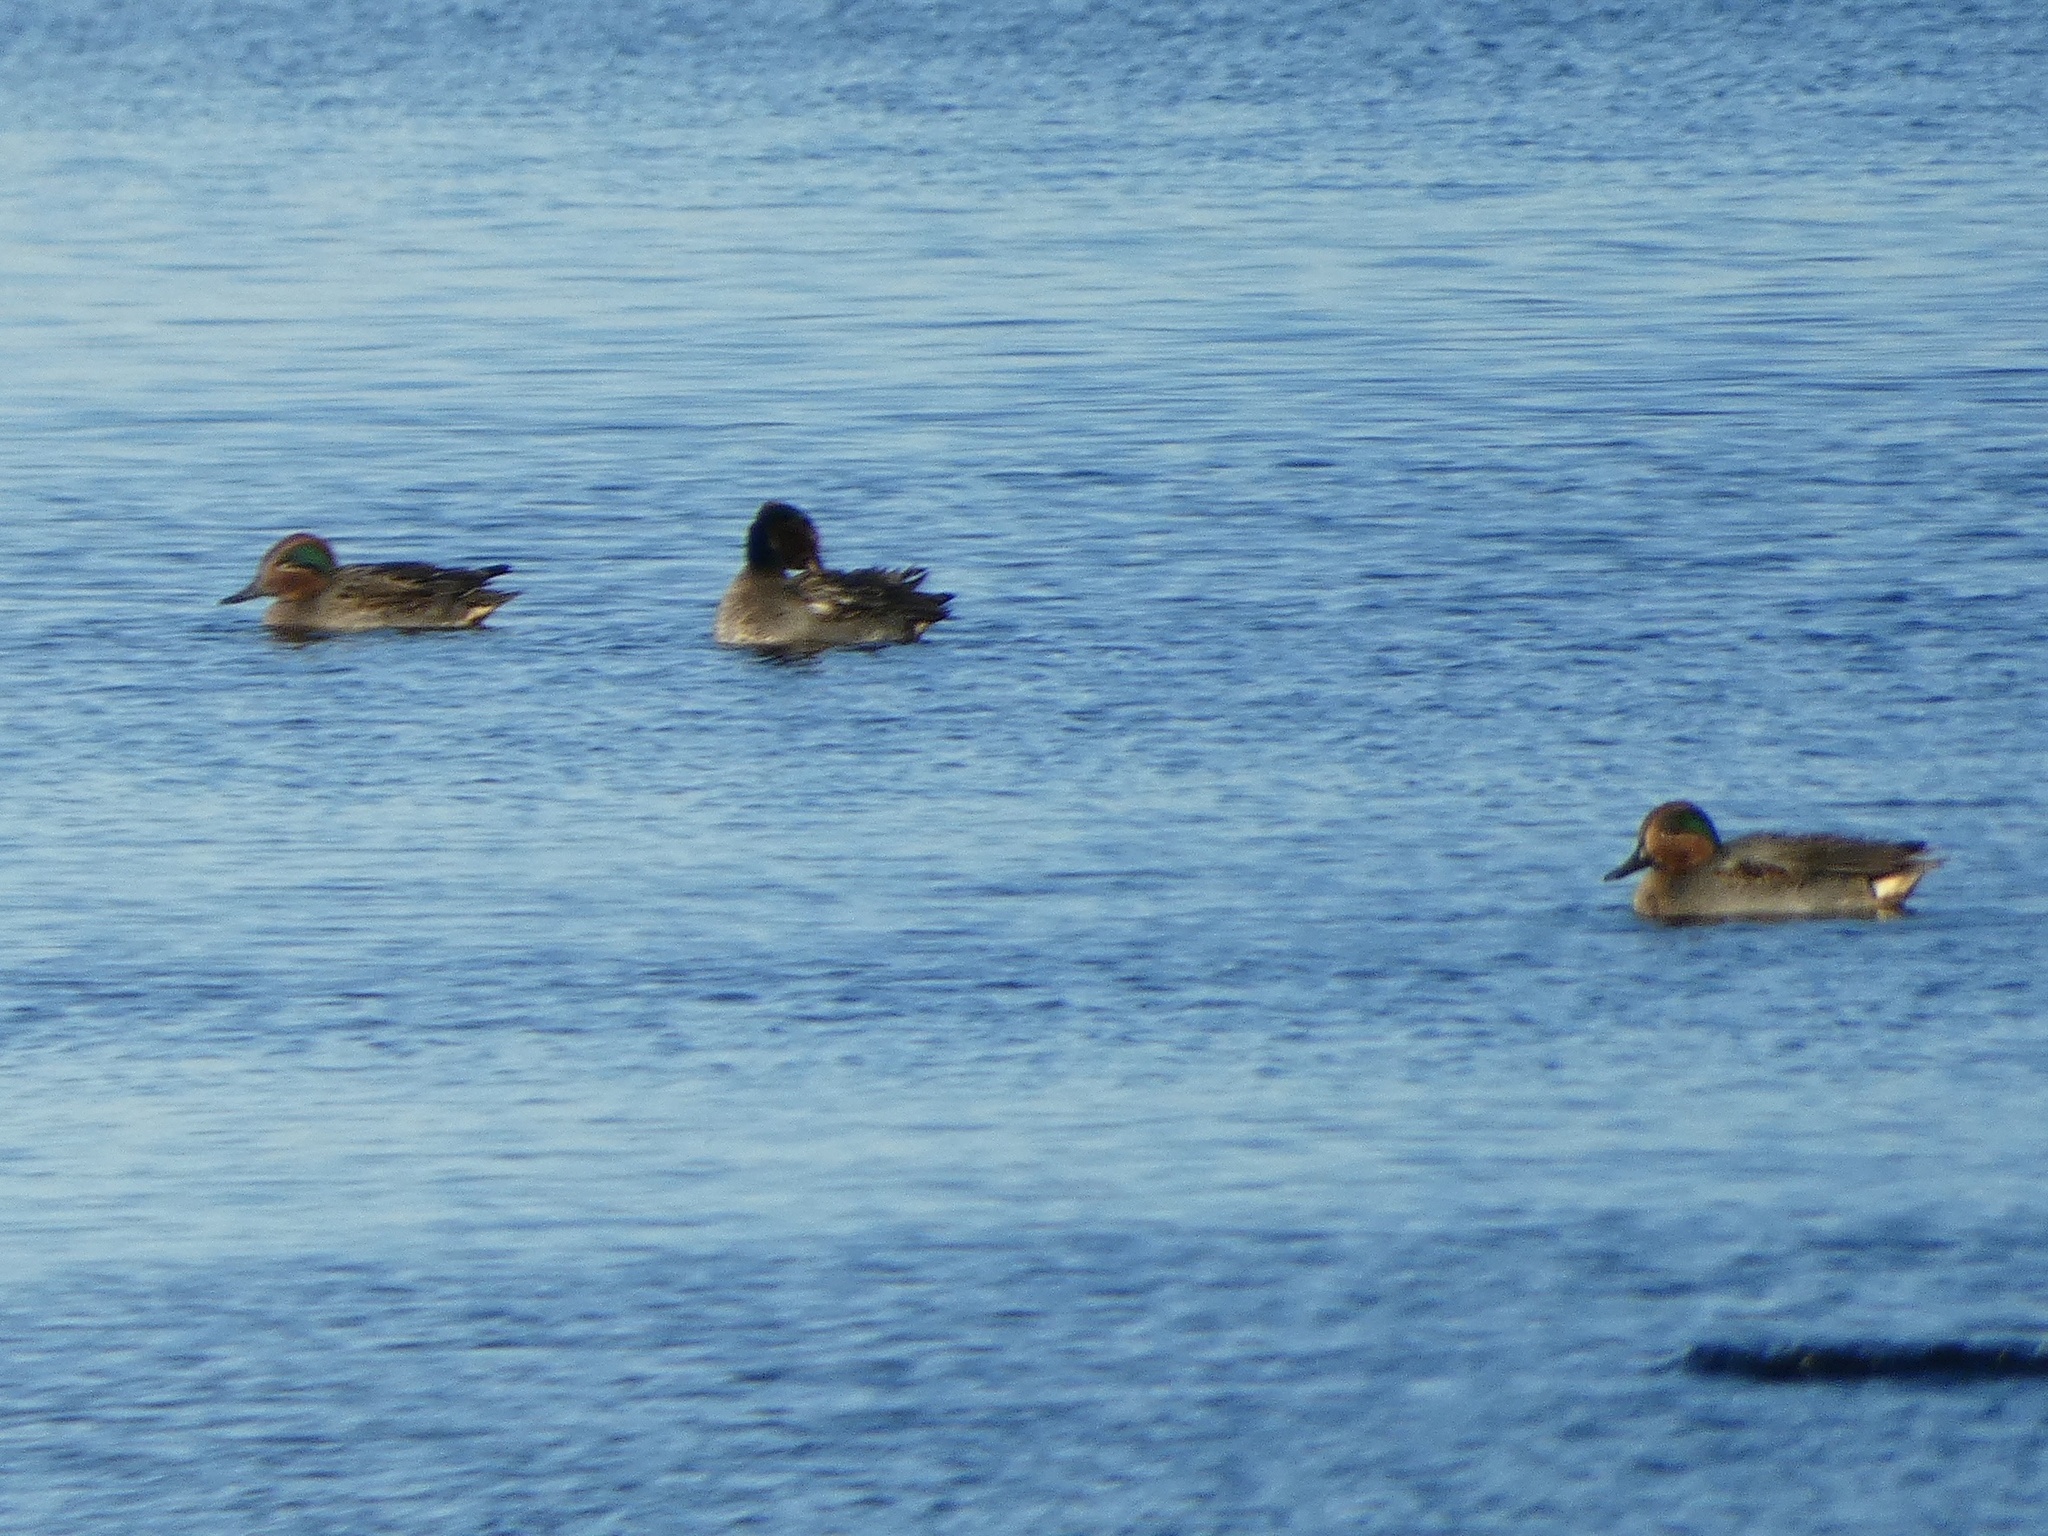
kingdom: Animalia
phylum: Chordata
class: Aves
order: Anseriformes
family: Anatidae
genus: Anas
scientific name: Anas crecca
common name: Eurasian teal
